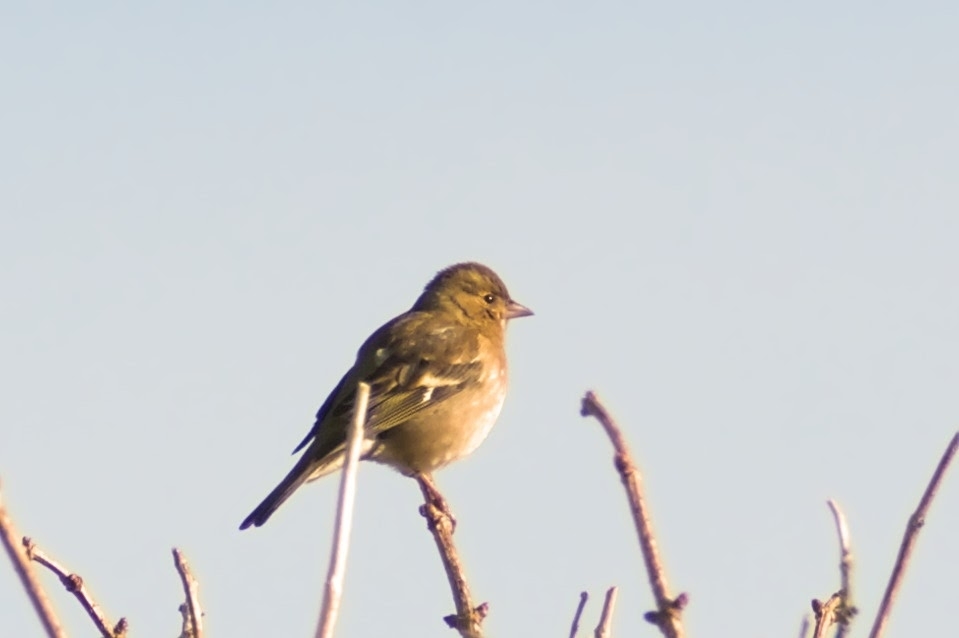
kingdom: Animalia
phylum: Chordata
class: Aves
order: Passeriformes
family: Fringillidae
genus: Fringilla
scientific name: Fringilla coelebs
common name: Common chaffinch
